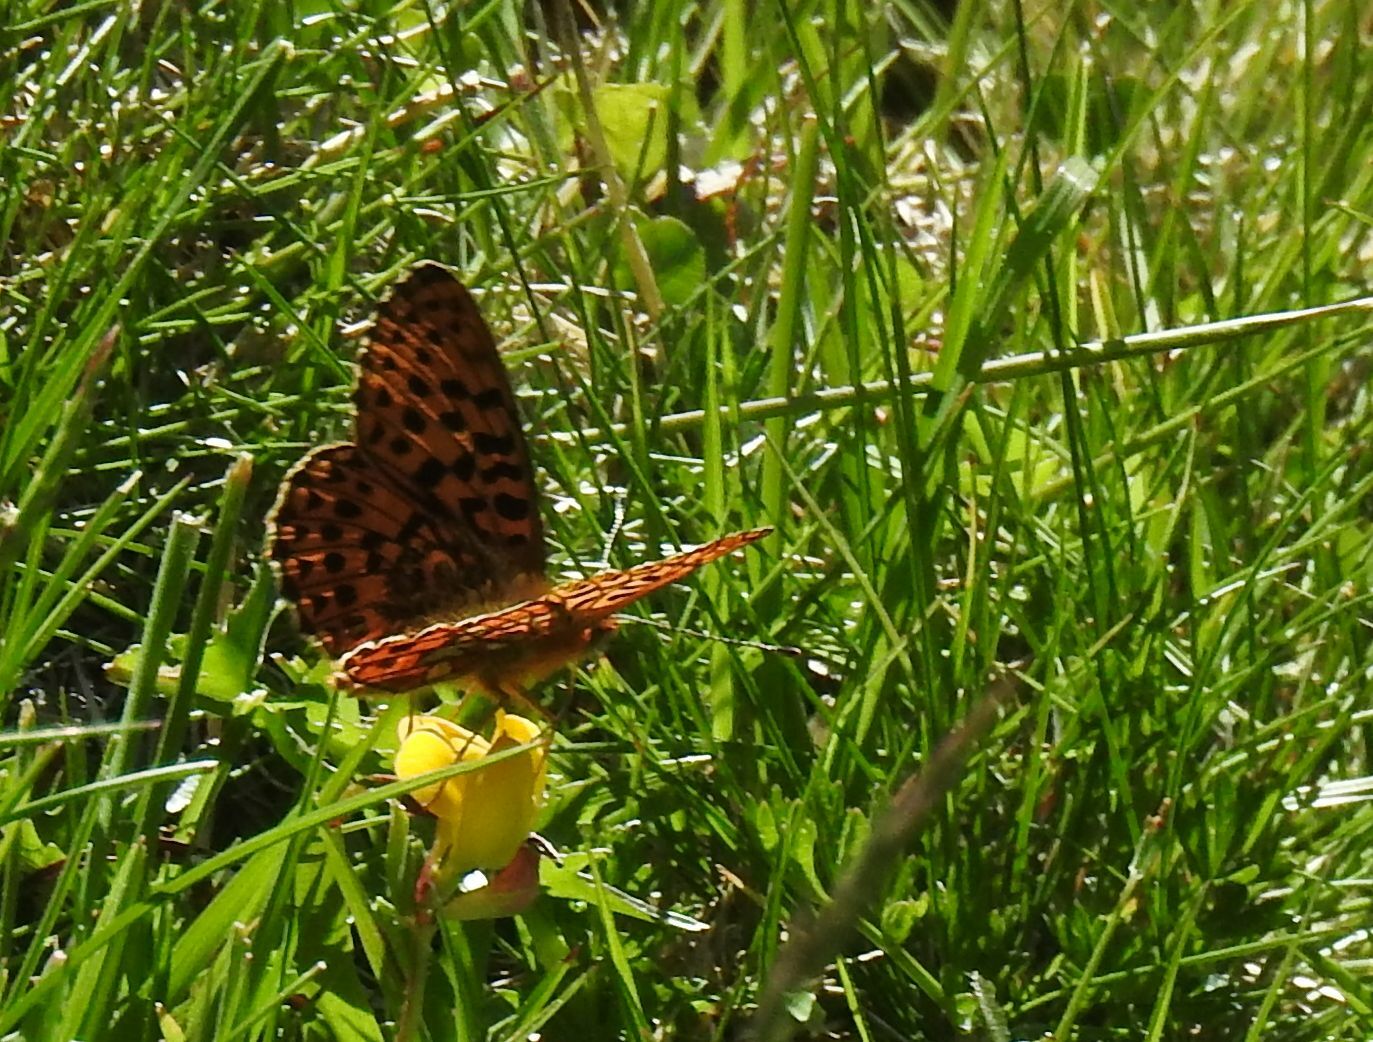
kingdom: Animalia
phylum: Arthropoda
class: Insecta
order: Lepidoptera
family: Nymphalidae
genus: Clossiana
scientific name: Clossiana euphrosyne
